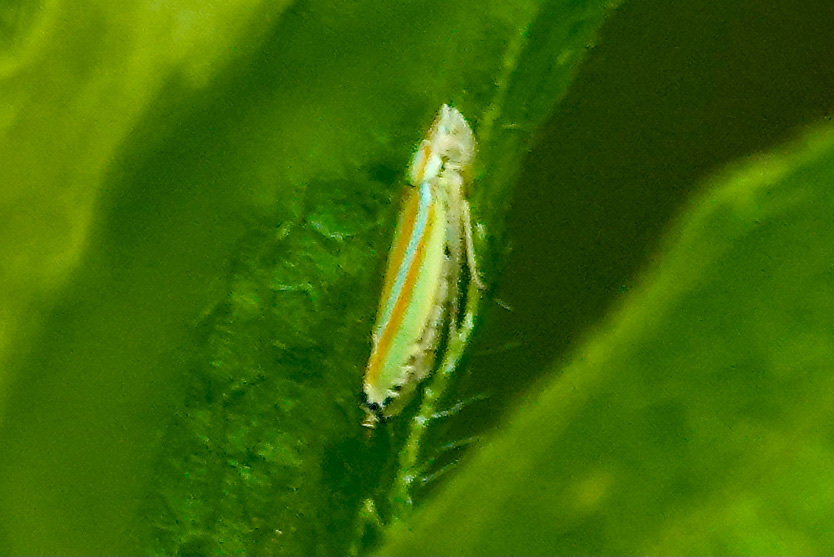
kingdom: Animalia
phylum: Arthropoda
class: Insecta
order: Hemiptera
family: Cicadellidae
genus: Graphocephala
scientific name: Graphocephala versuta
